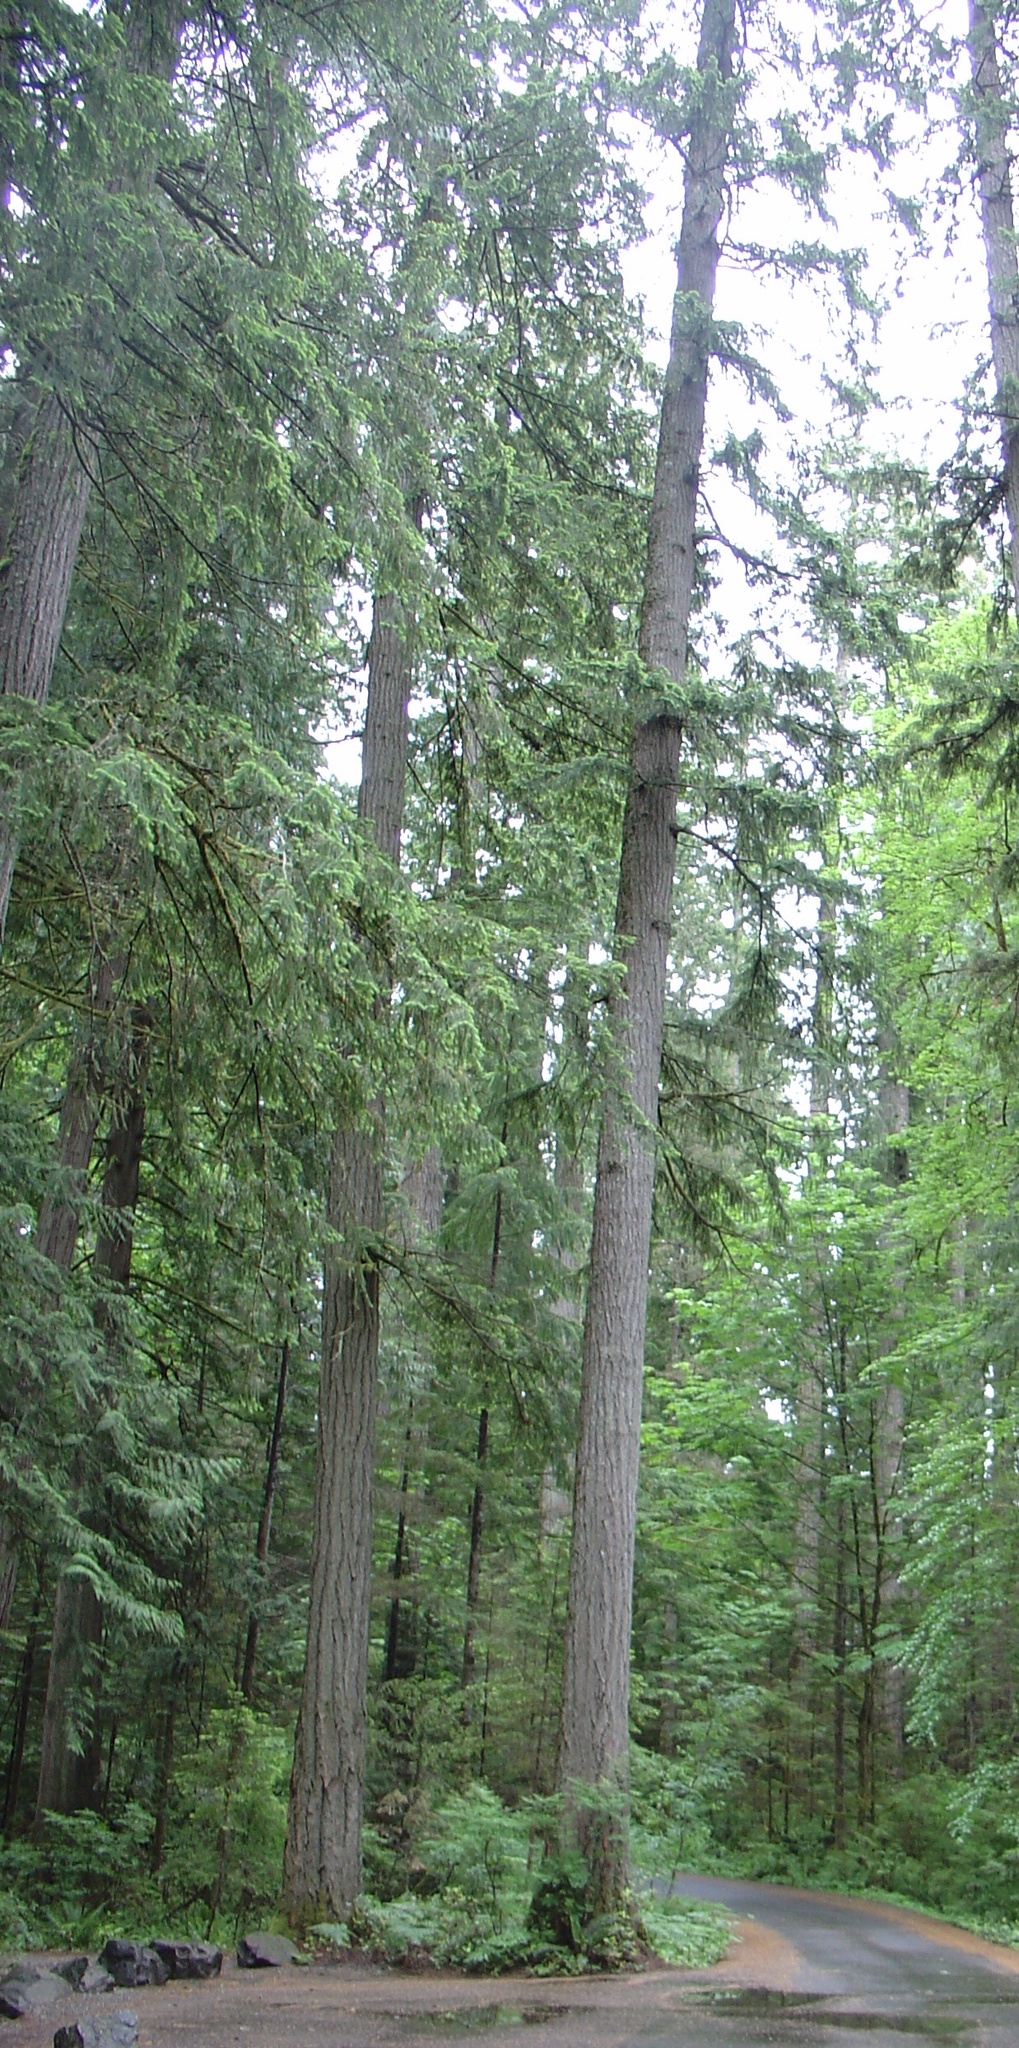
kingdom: Plantae
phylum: Tracheophyta
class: Pinopsida
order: Pinales
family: Cupressaceae
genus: Thuja
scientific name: Thuja plicata
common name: Western red-cedar
